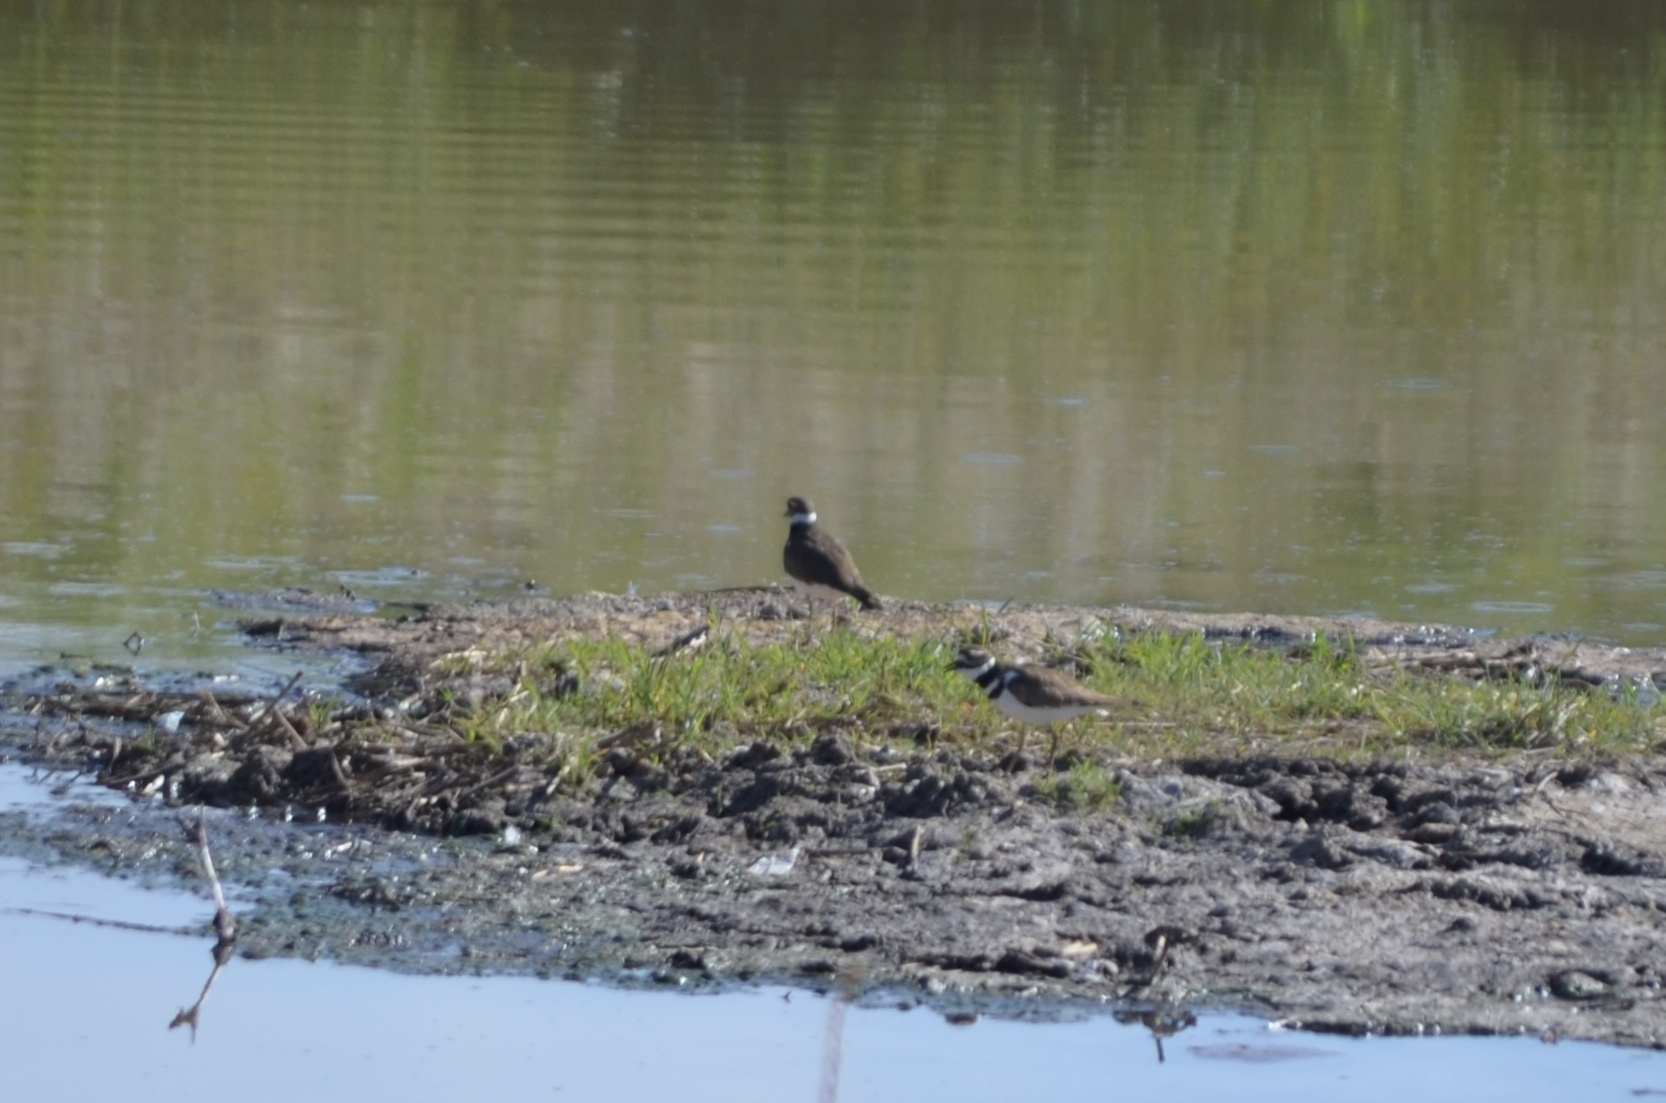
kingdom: Animalia
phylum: Chordata
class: Aves
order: Charadriiformes
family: Charadriidae
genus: Charadrius
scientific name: Charadrius vociferus
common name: Killdeer
